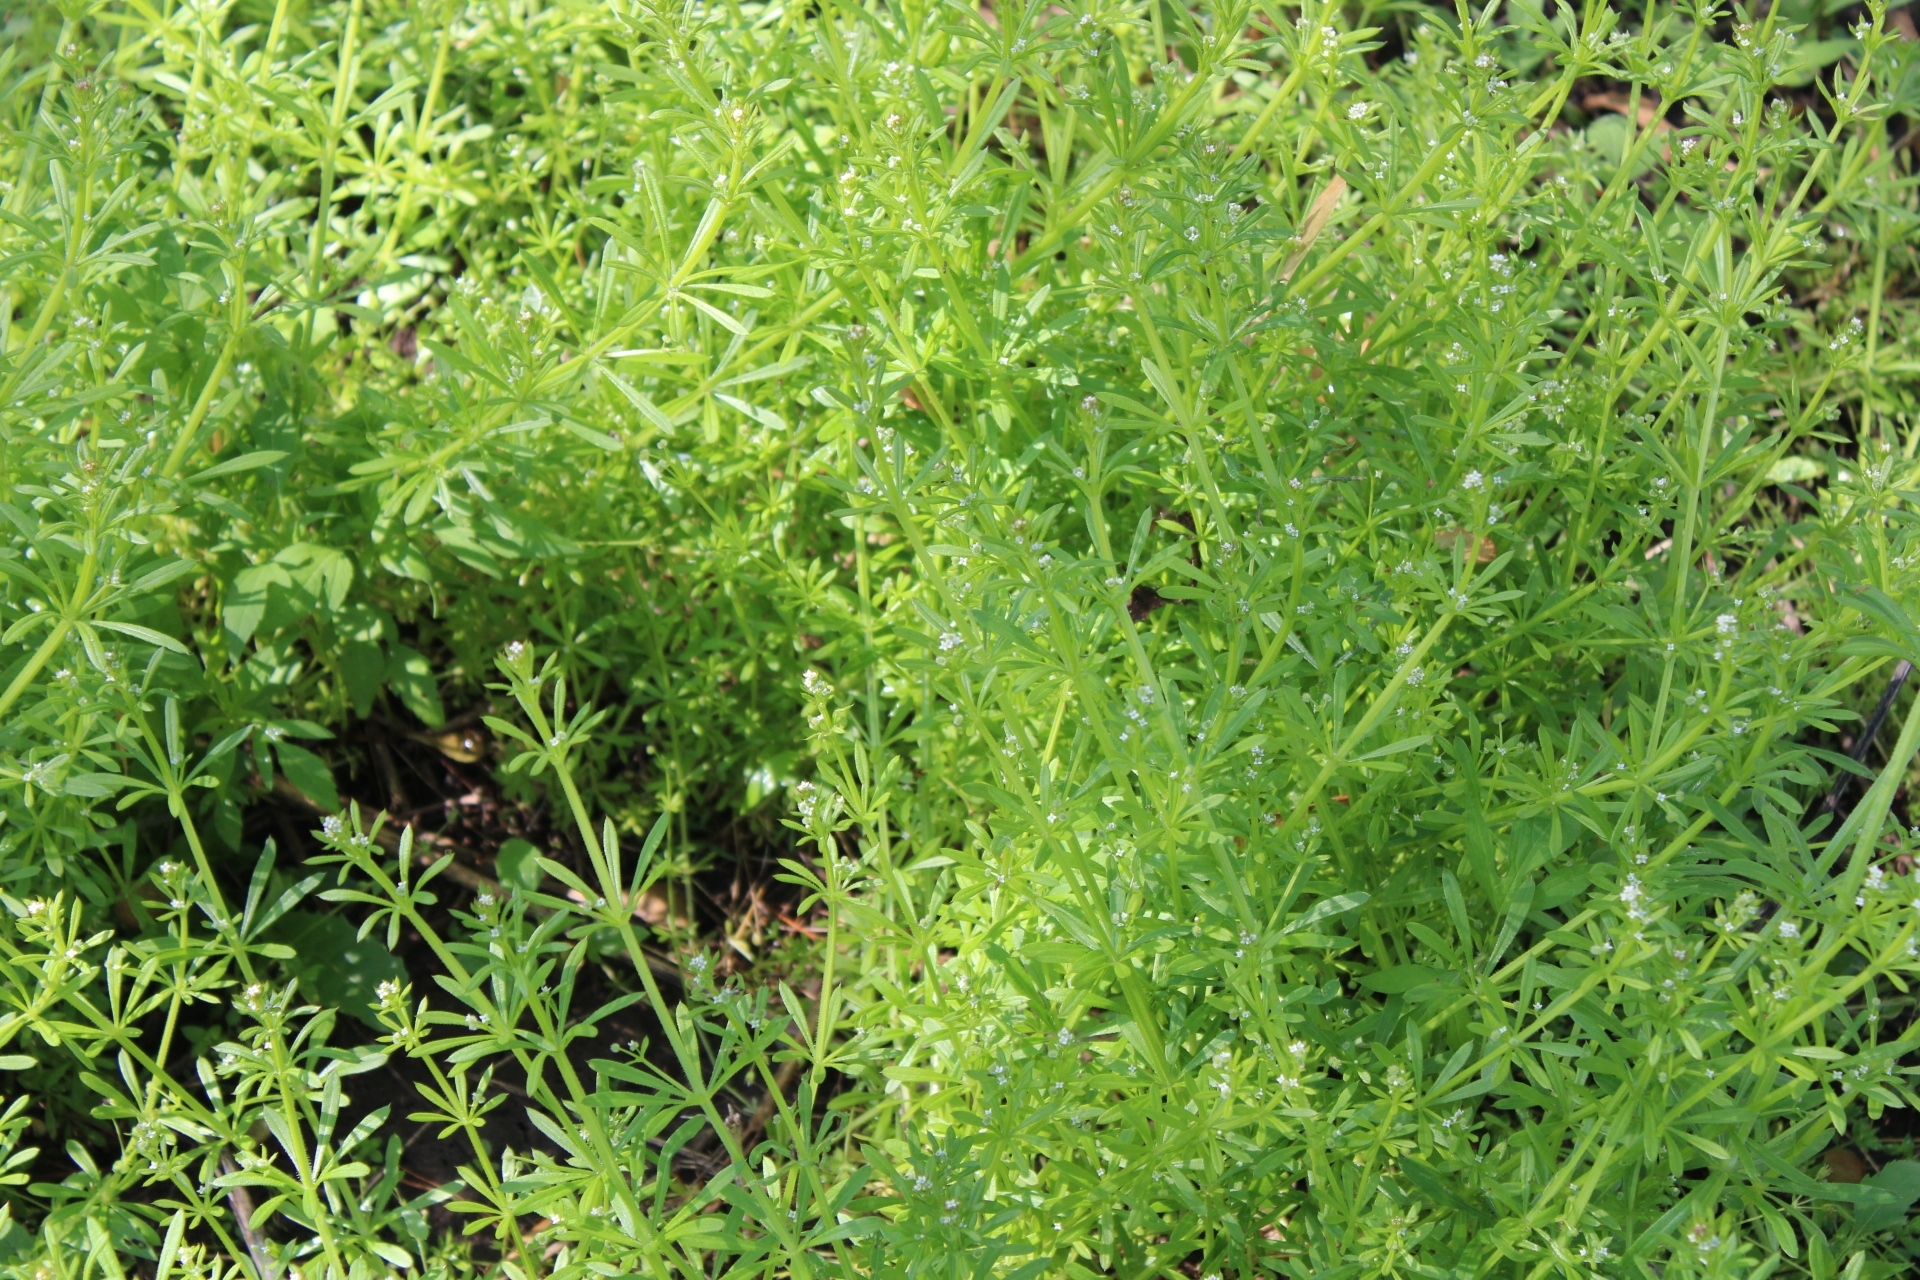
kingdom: Plantae
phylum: Tracheophyta
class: Magnoliopsida
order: Gentianales
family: Rubiaceae
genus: Galium
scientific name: Galium aparine
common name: Cleavers
